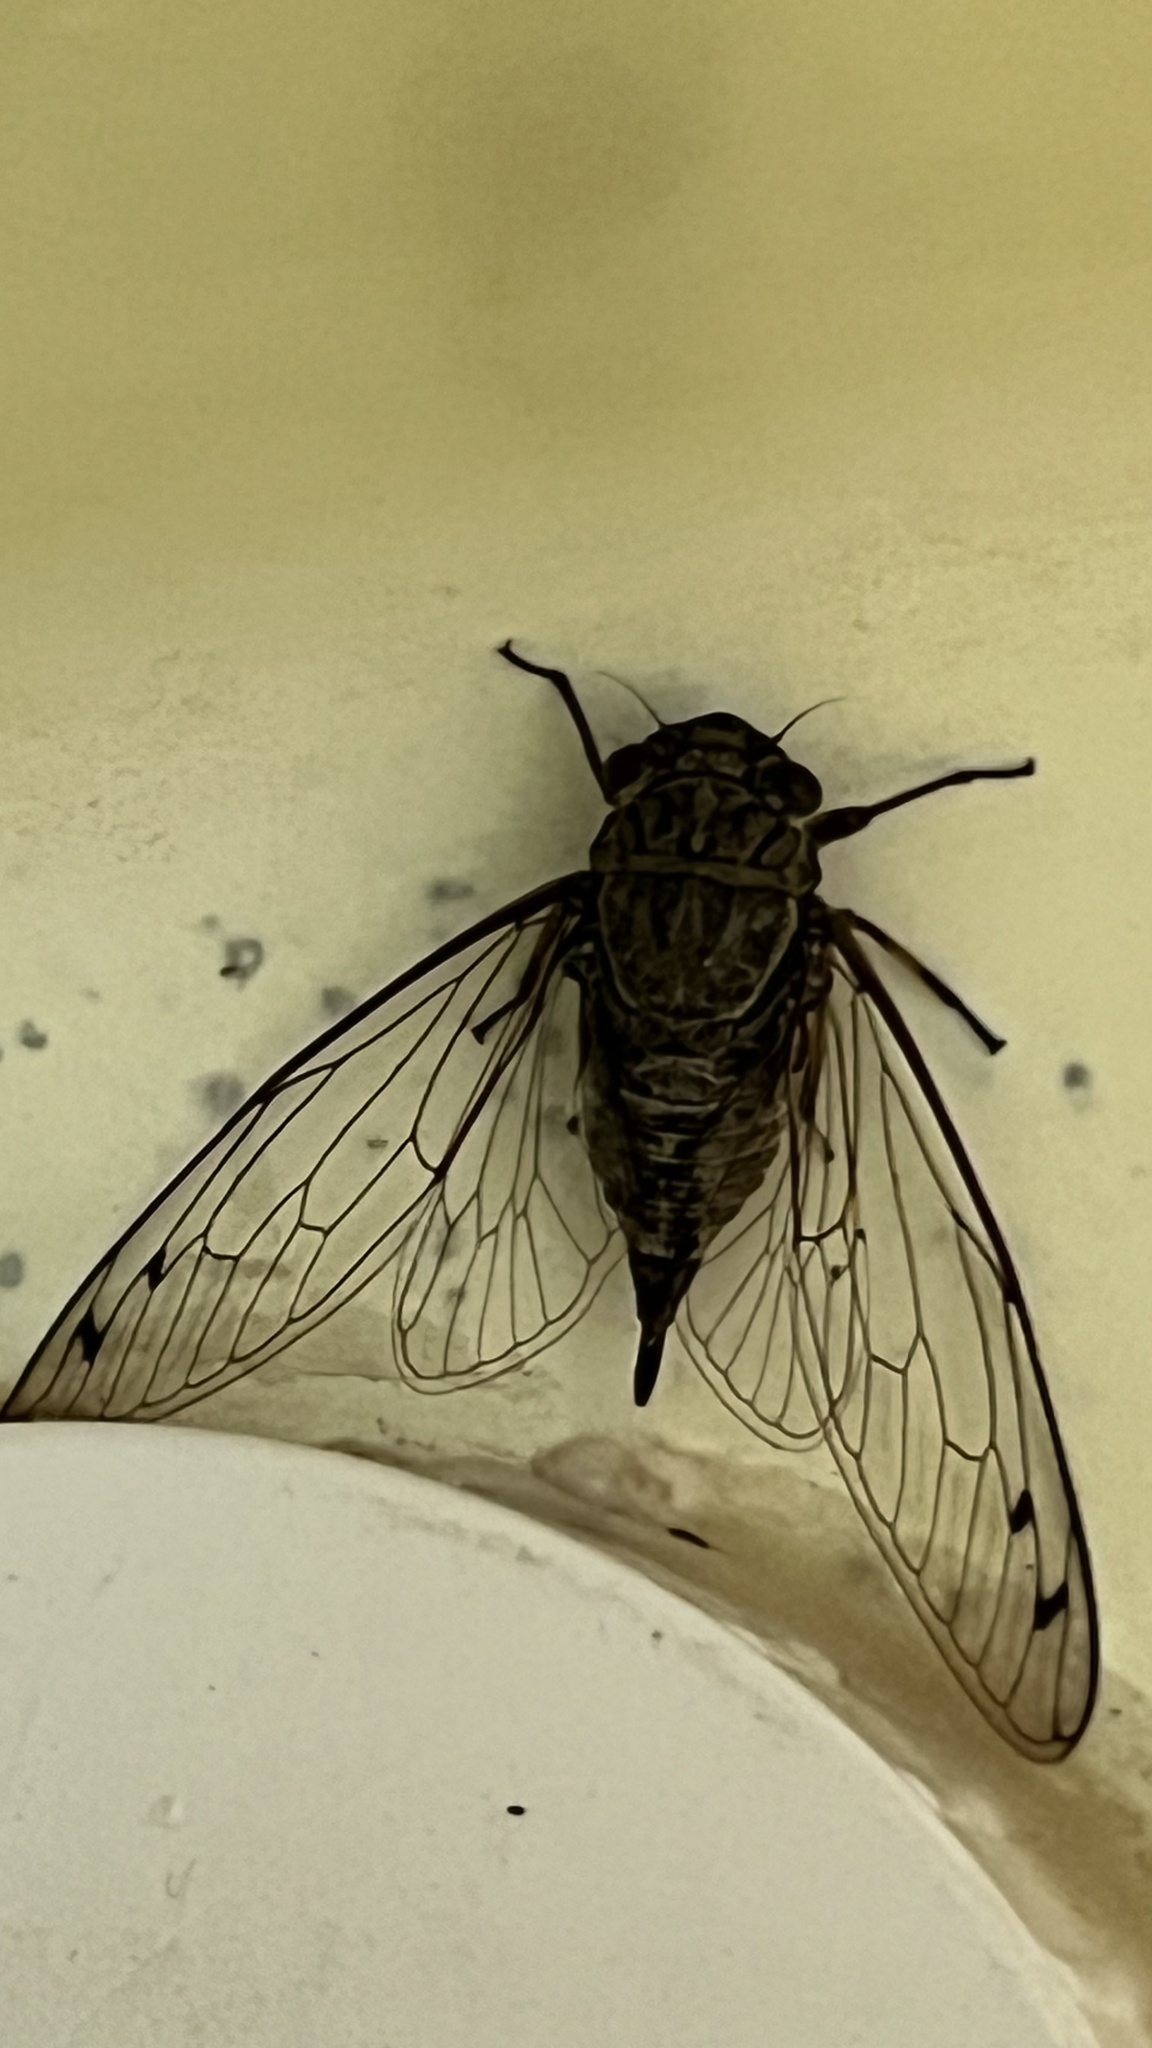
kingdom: Animalia
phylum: Arthropoda
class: Insecta
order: Hemiptera
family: Cicadidae
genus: Meimuna
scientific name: Meimuna opalifera
